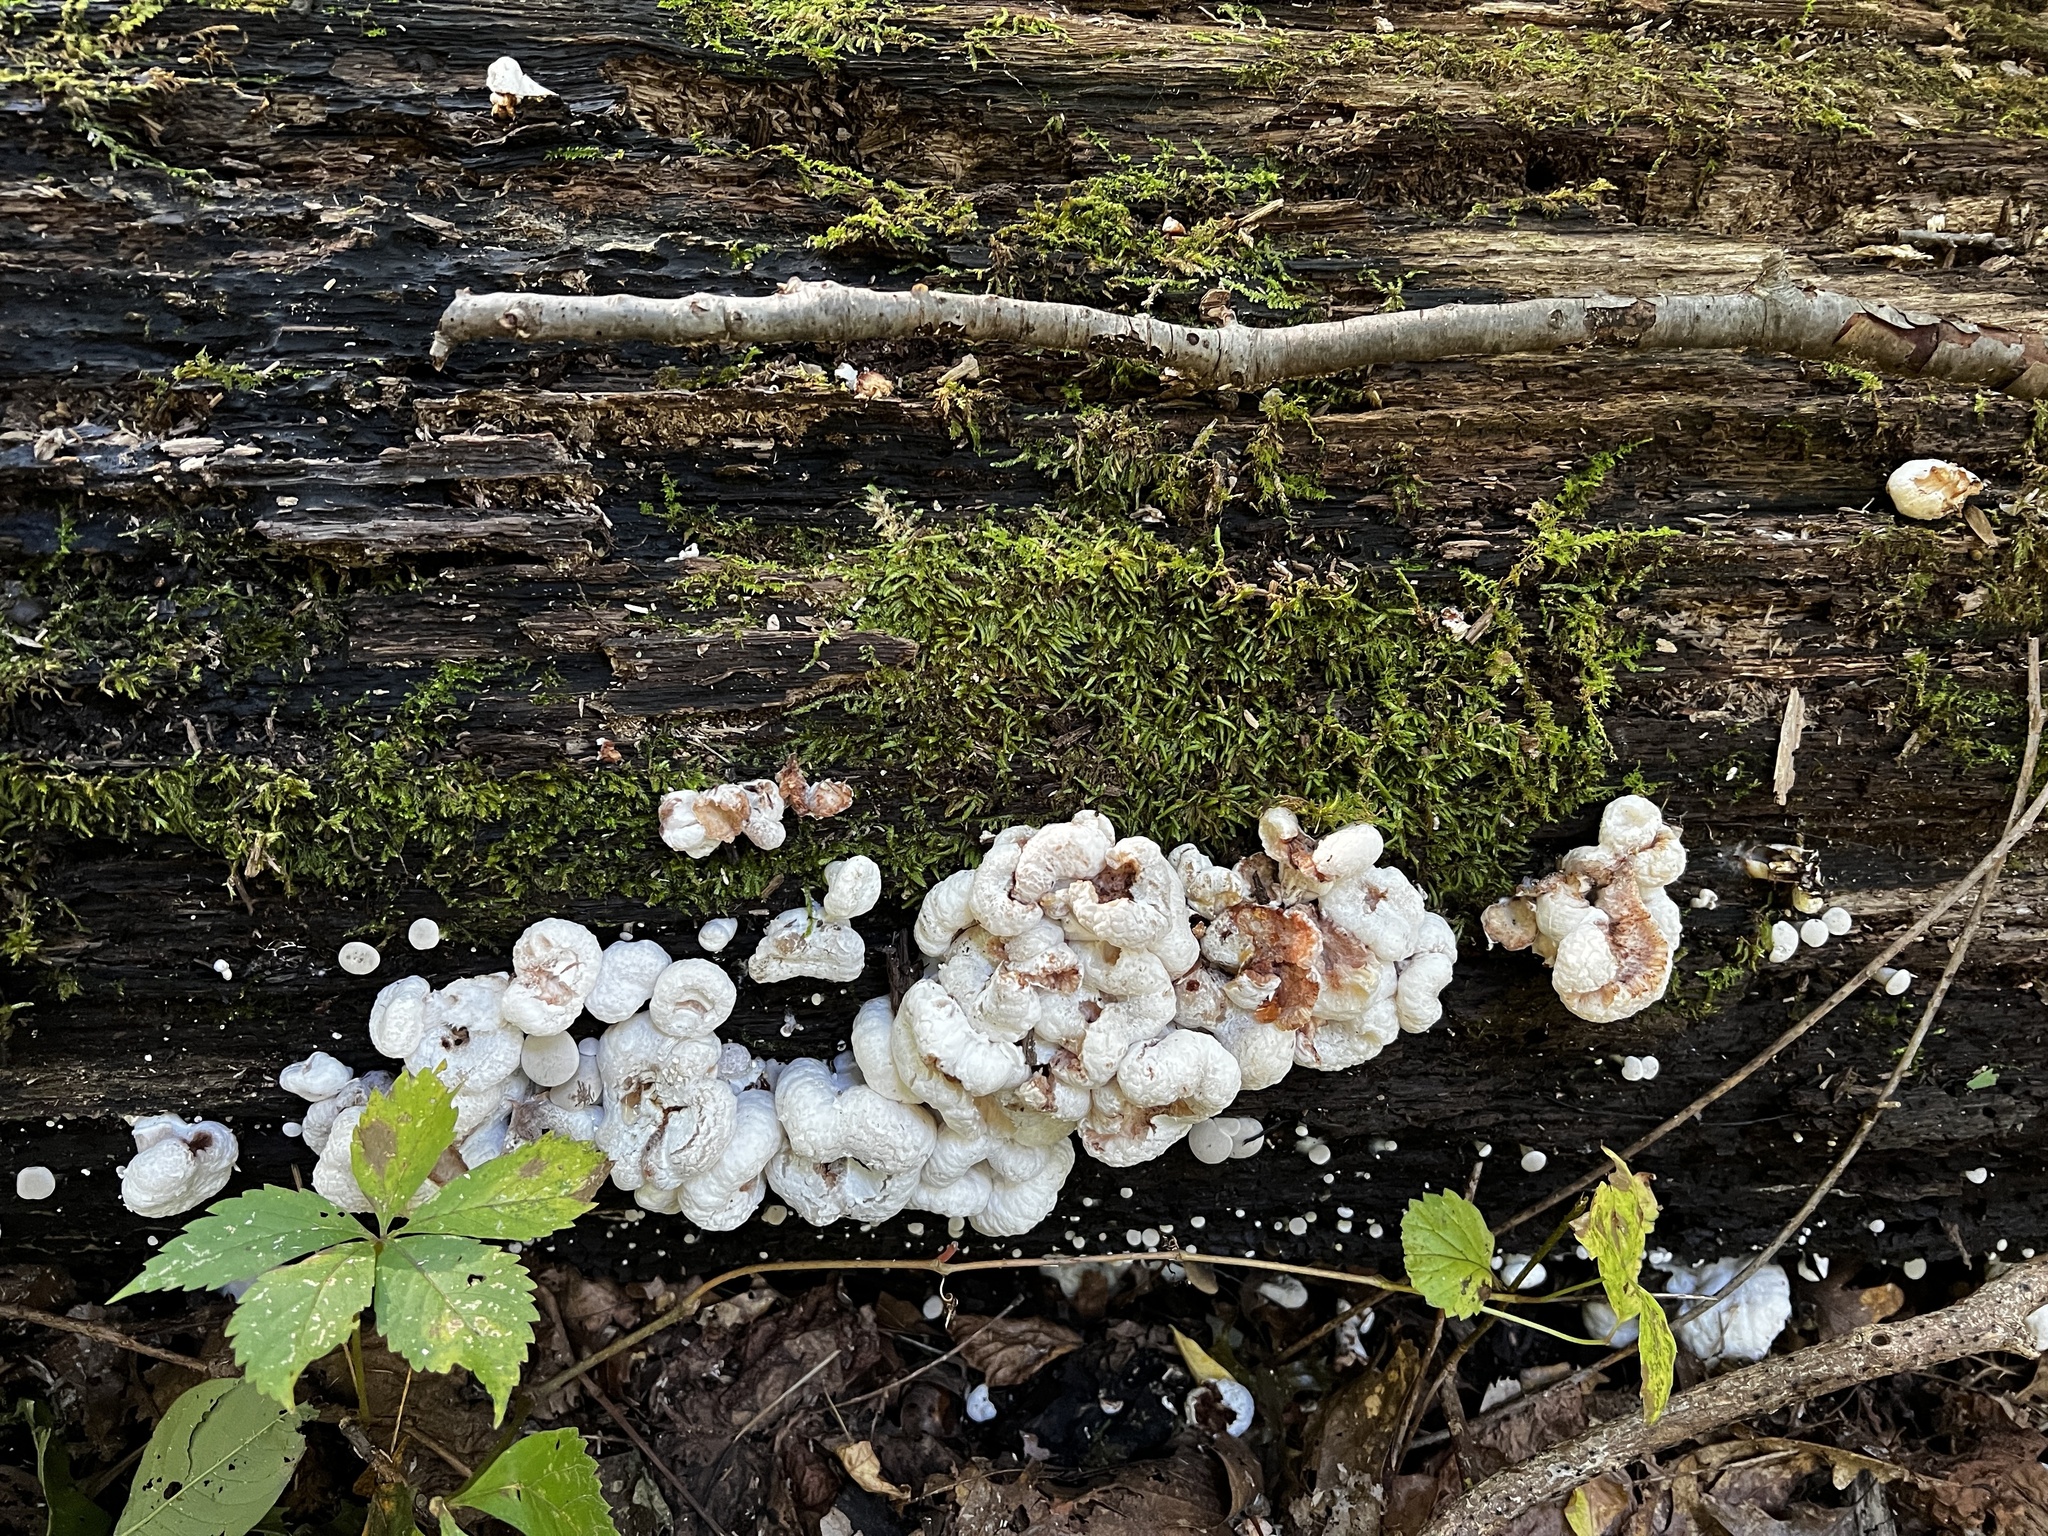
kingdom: Fungi
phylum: Basidiomycota
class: Agaricomycetes
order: Agaricales
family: Entolomataceae
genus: Entoloma
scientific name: Entoloma abortivum
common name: Aborted entoloma
